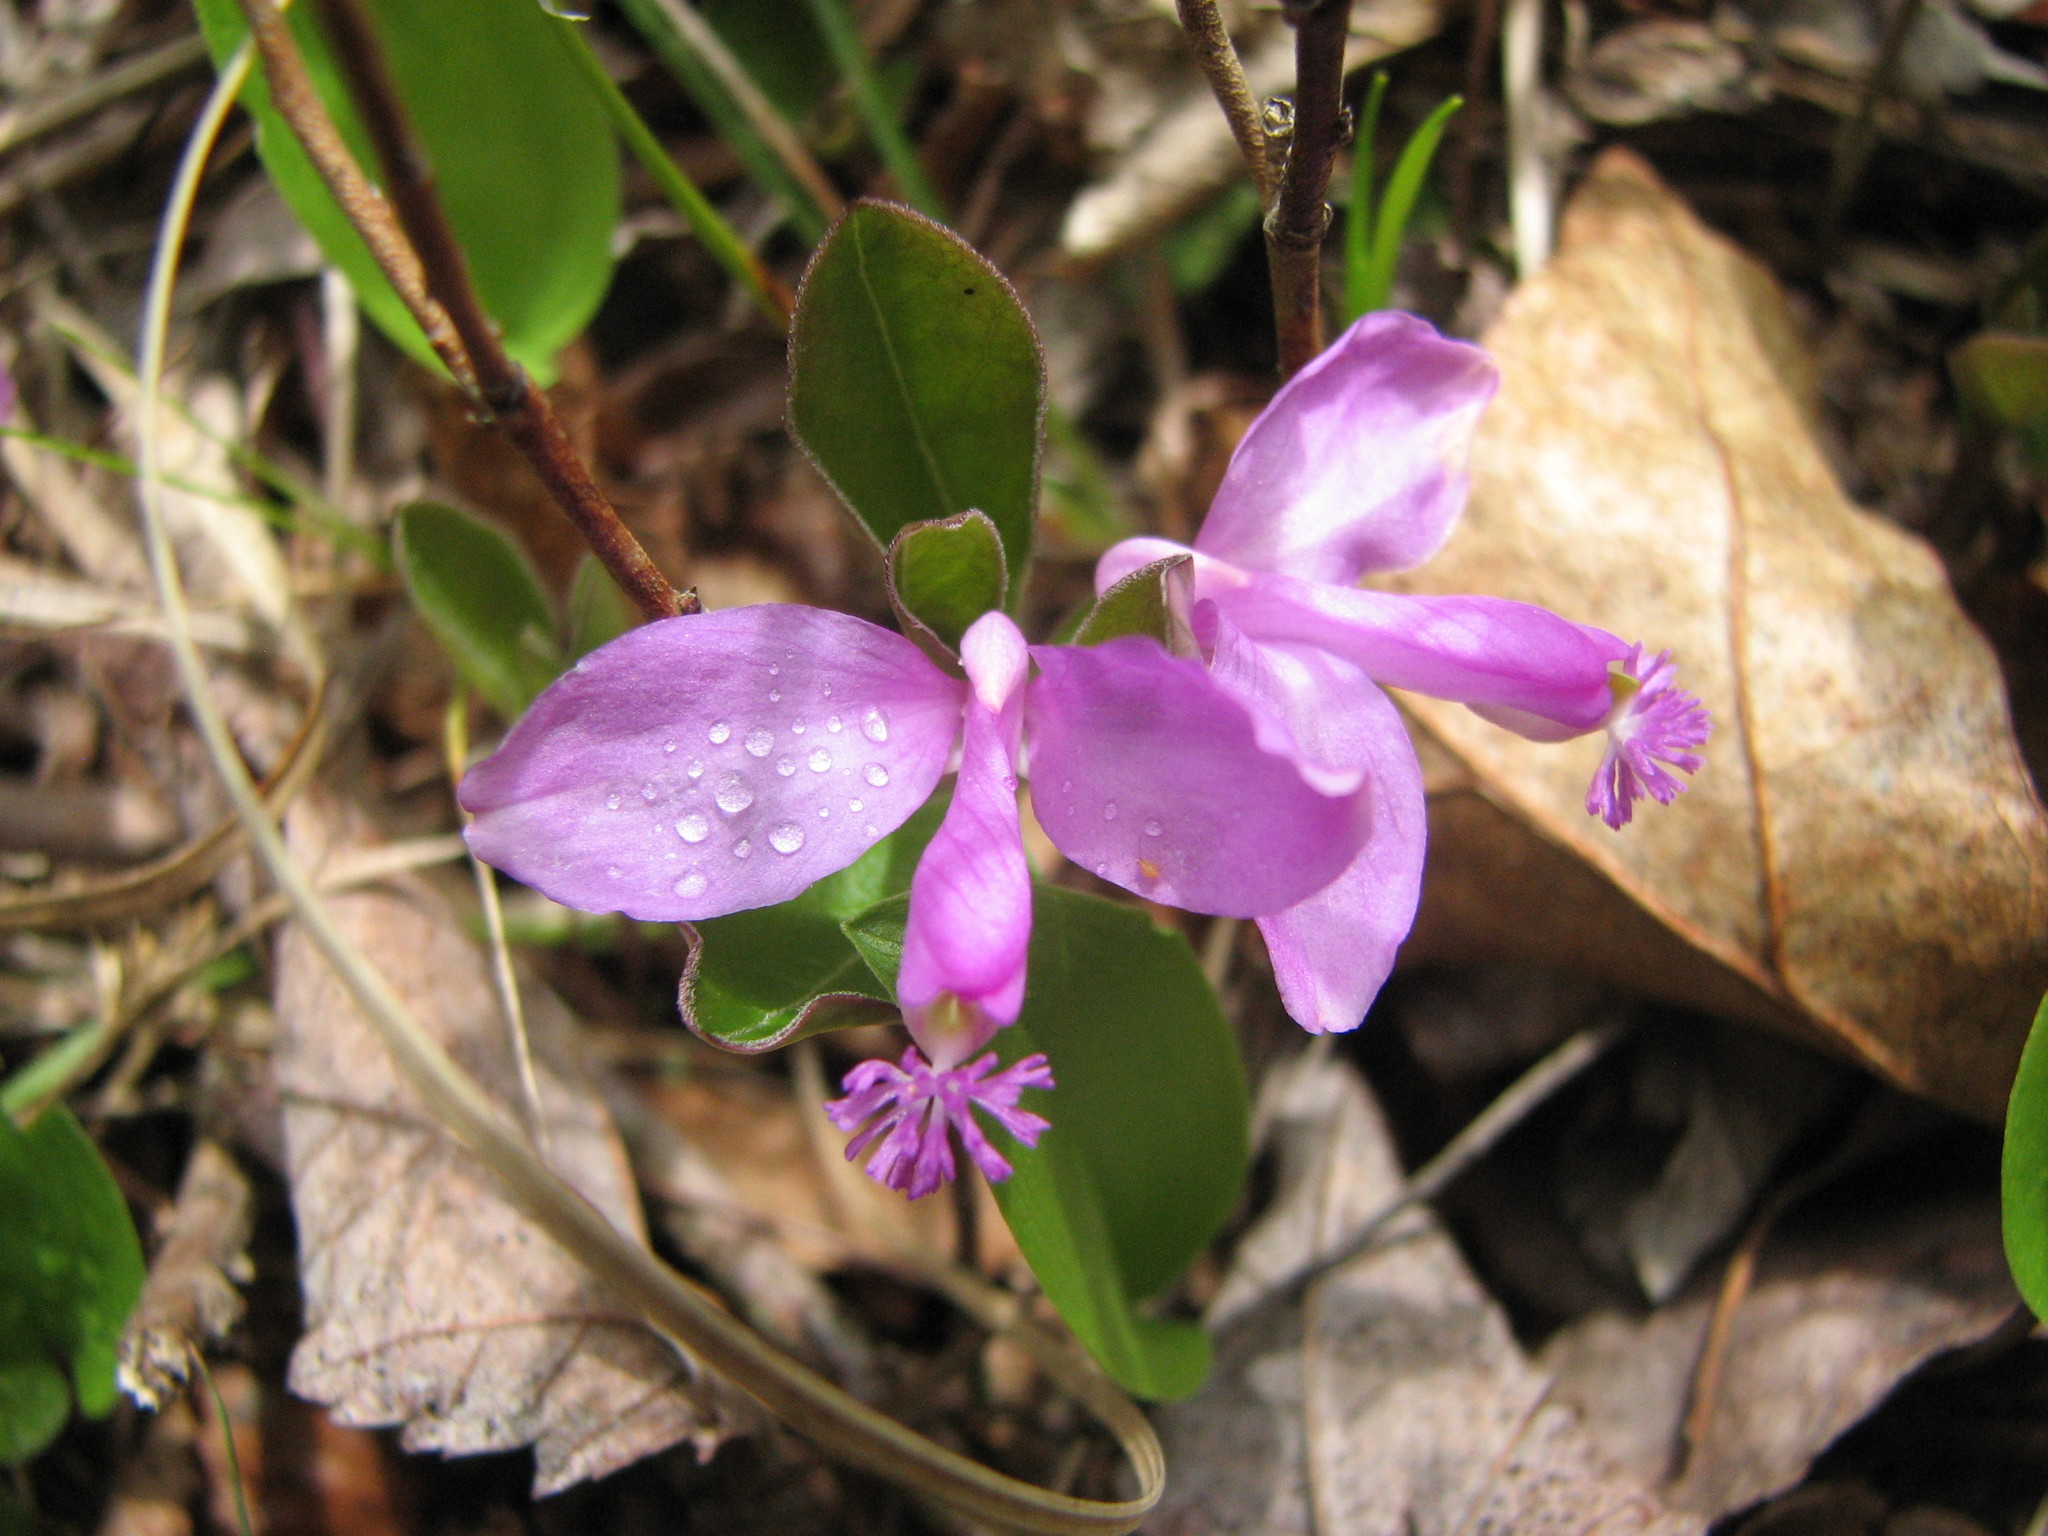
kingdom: Plantae
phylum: Tracheophyta
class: Magnoliopsida
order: Fabales
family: Polygalaceae
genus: Polygaloides
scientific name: Polygaloides paucifolia
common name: Bird-on-the-wing
